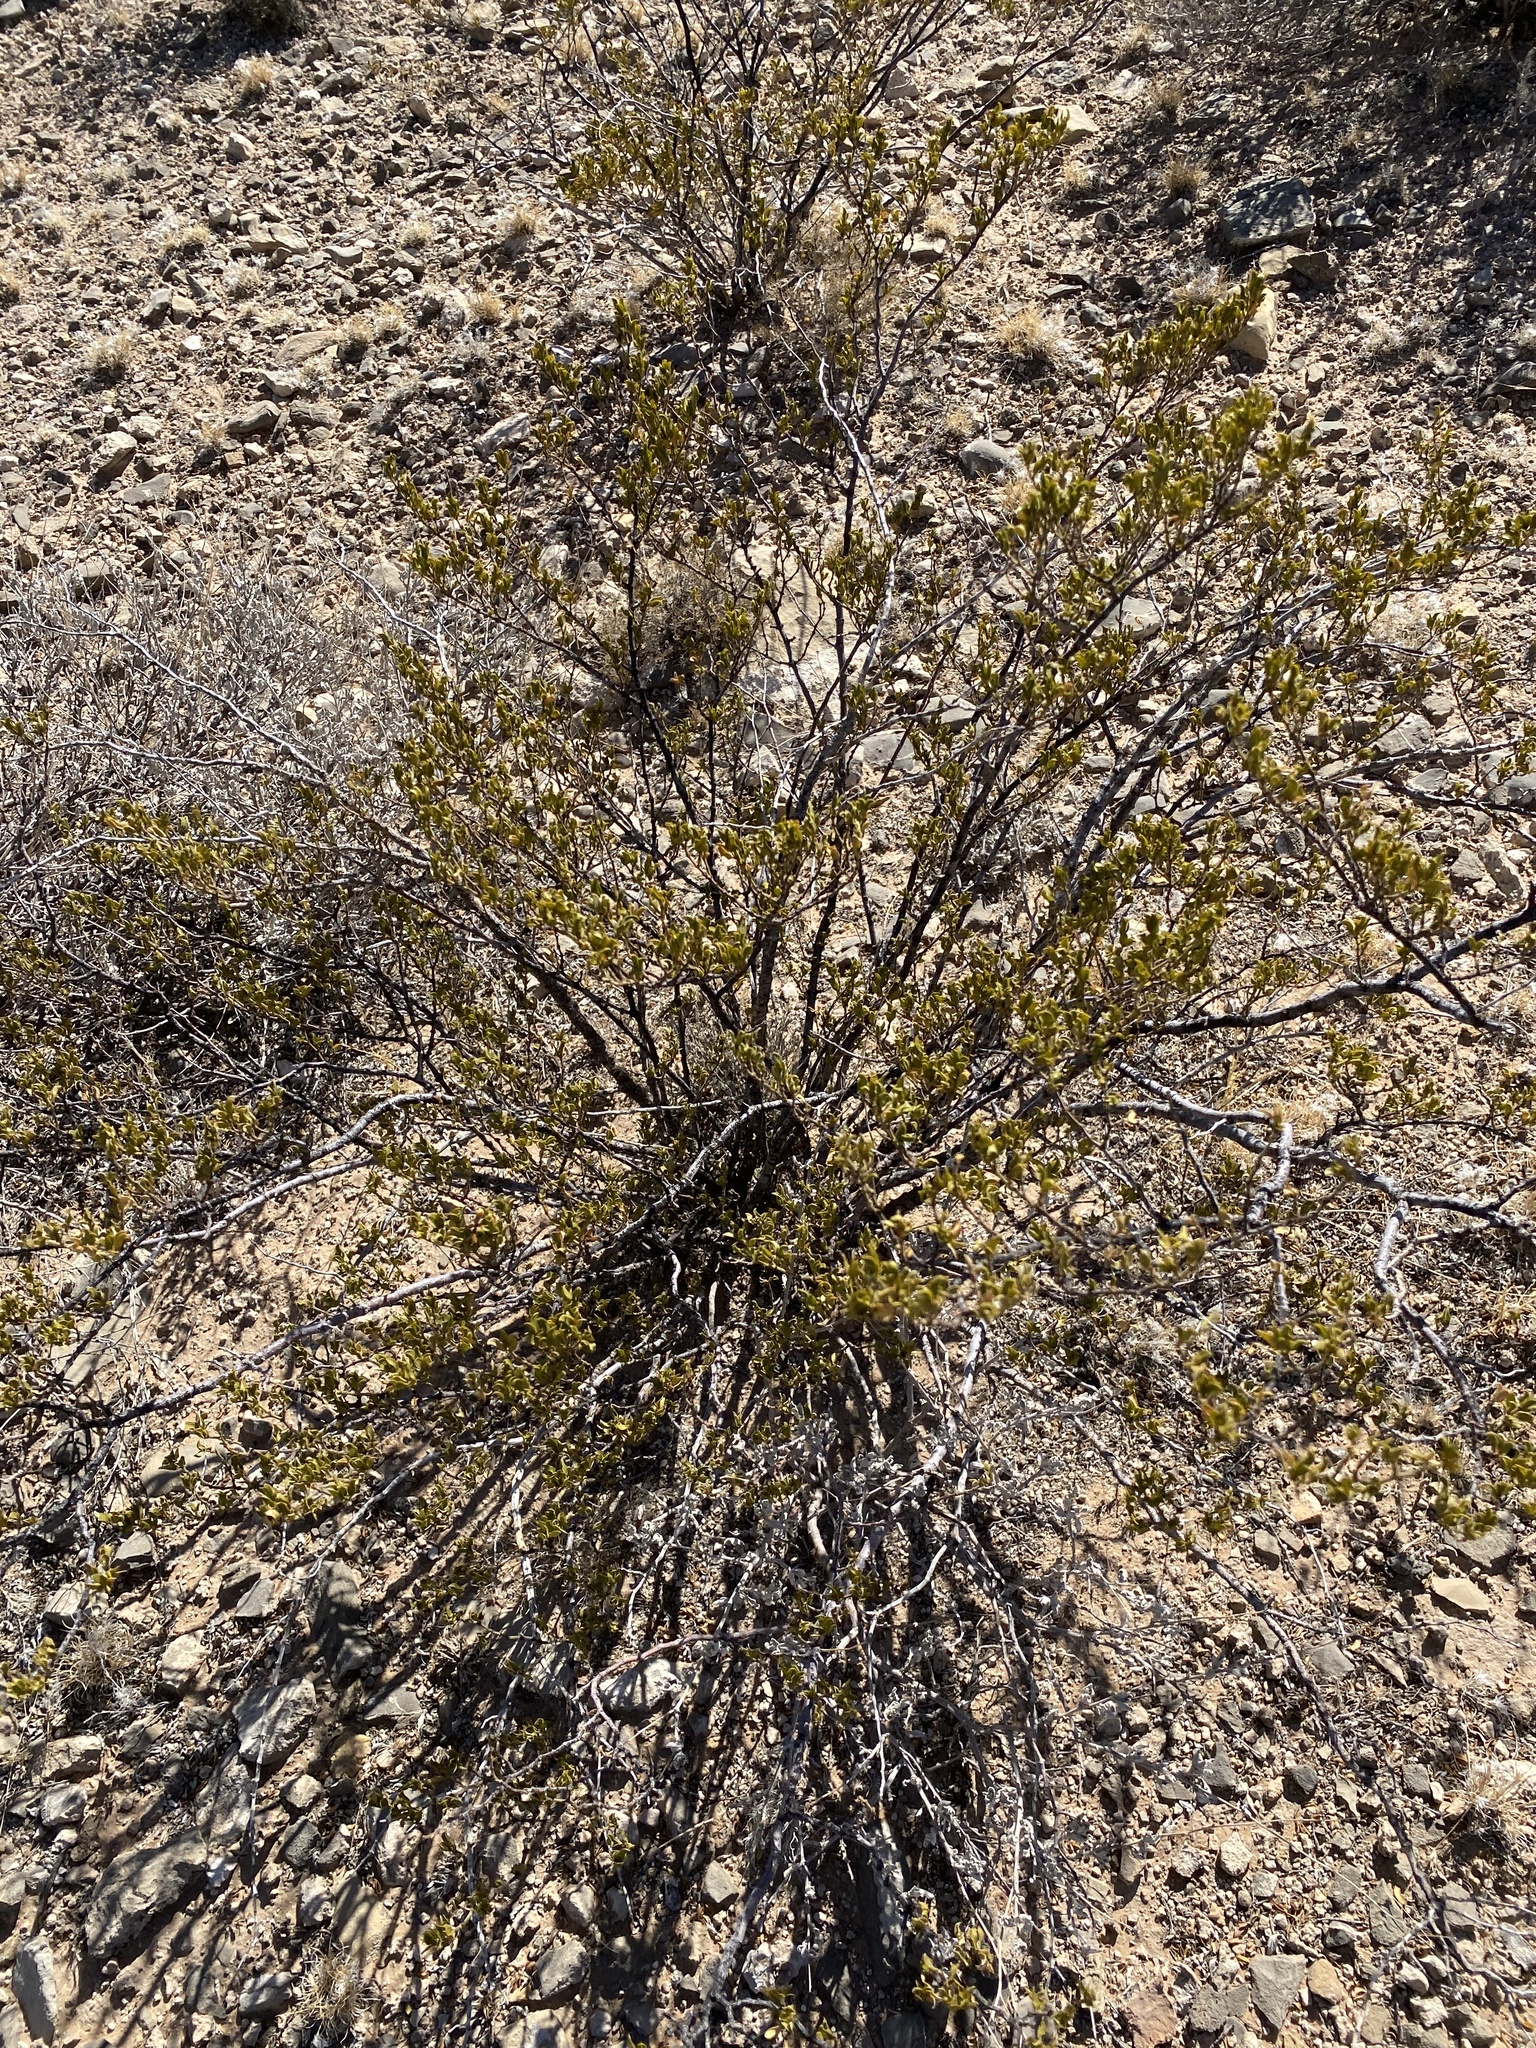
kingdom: Plantae
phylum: Tracheophyta
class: Magnoliopsida
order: Zygophyllales
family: Zygophyllaceae
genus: Larrea
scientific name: Larrea tridentata
